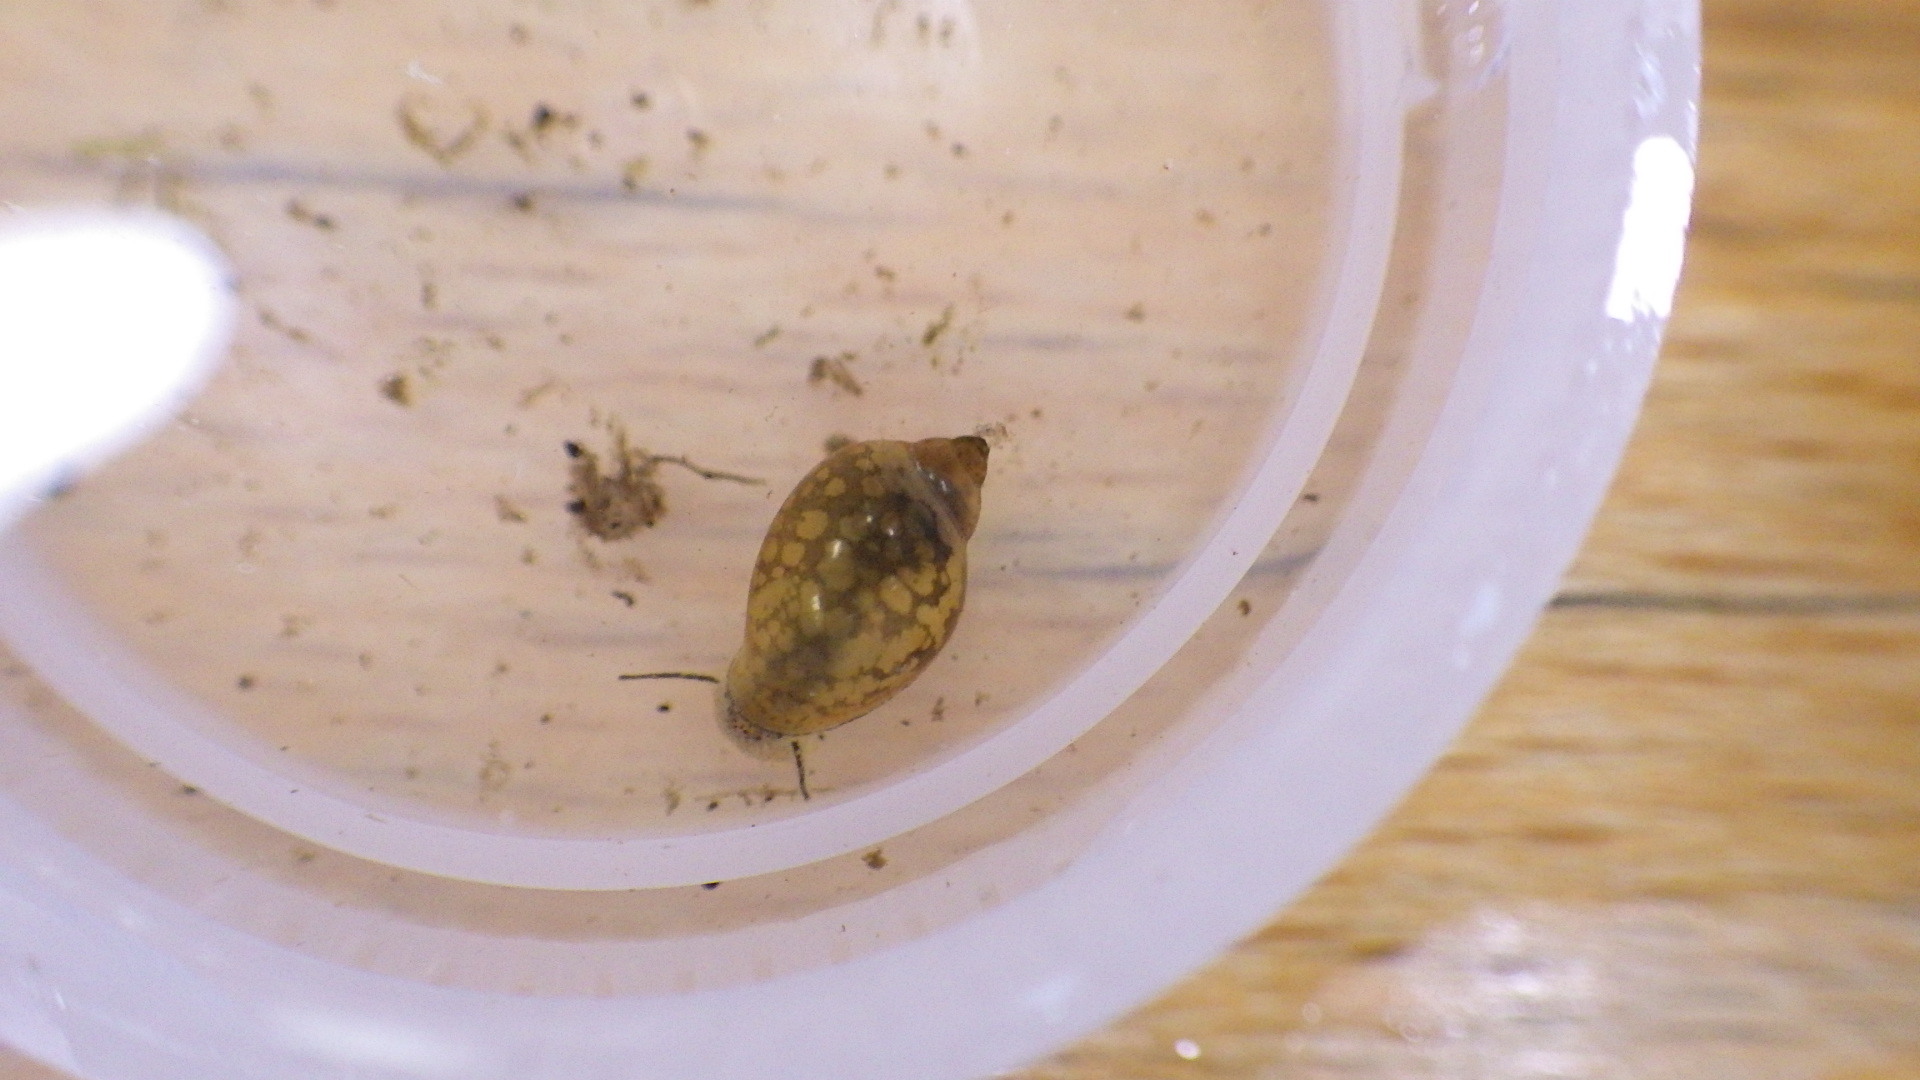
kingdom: Animalia
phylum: Mollusca
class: Gastropoda
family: Physidae
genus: Physella
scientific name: Physella acuta
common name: European physa
